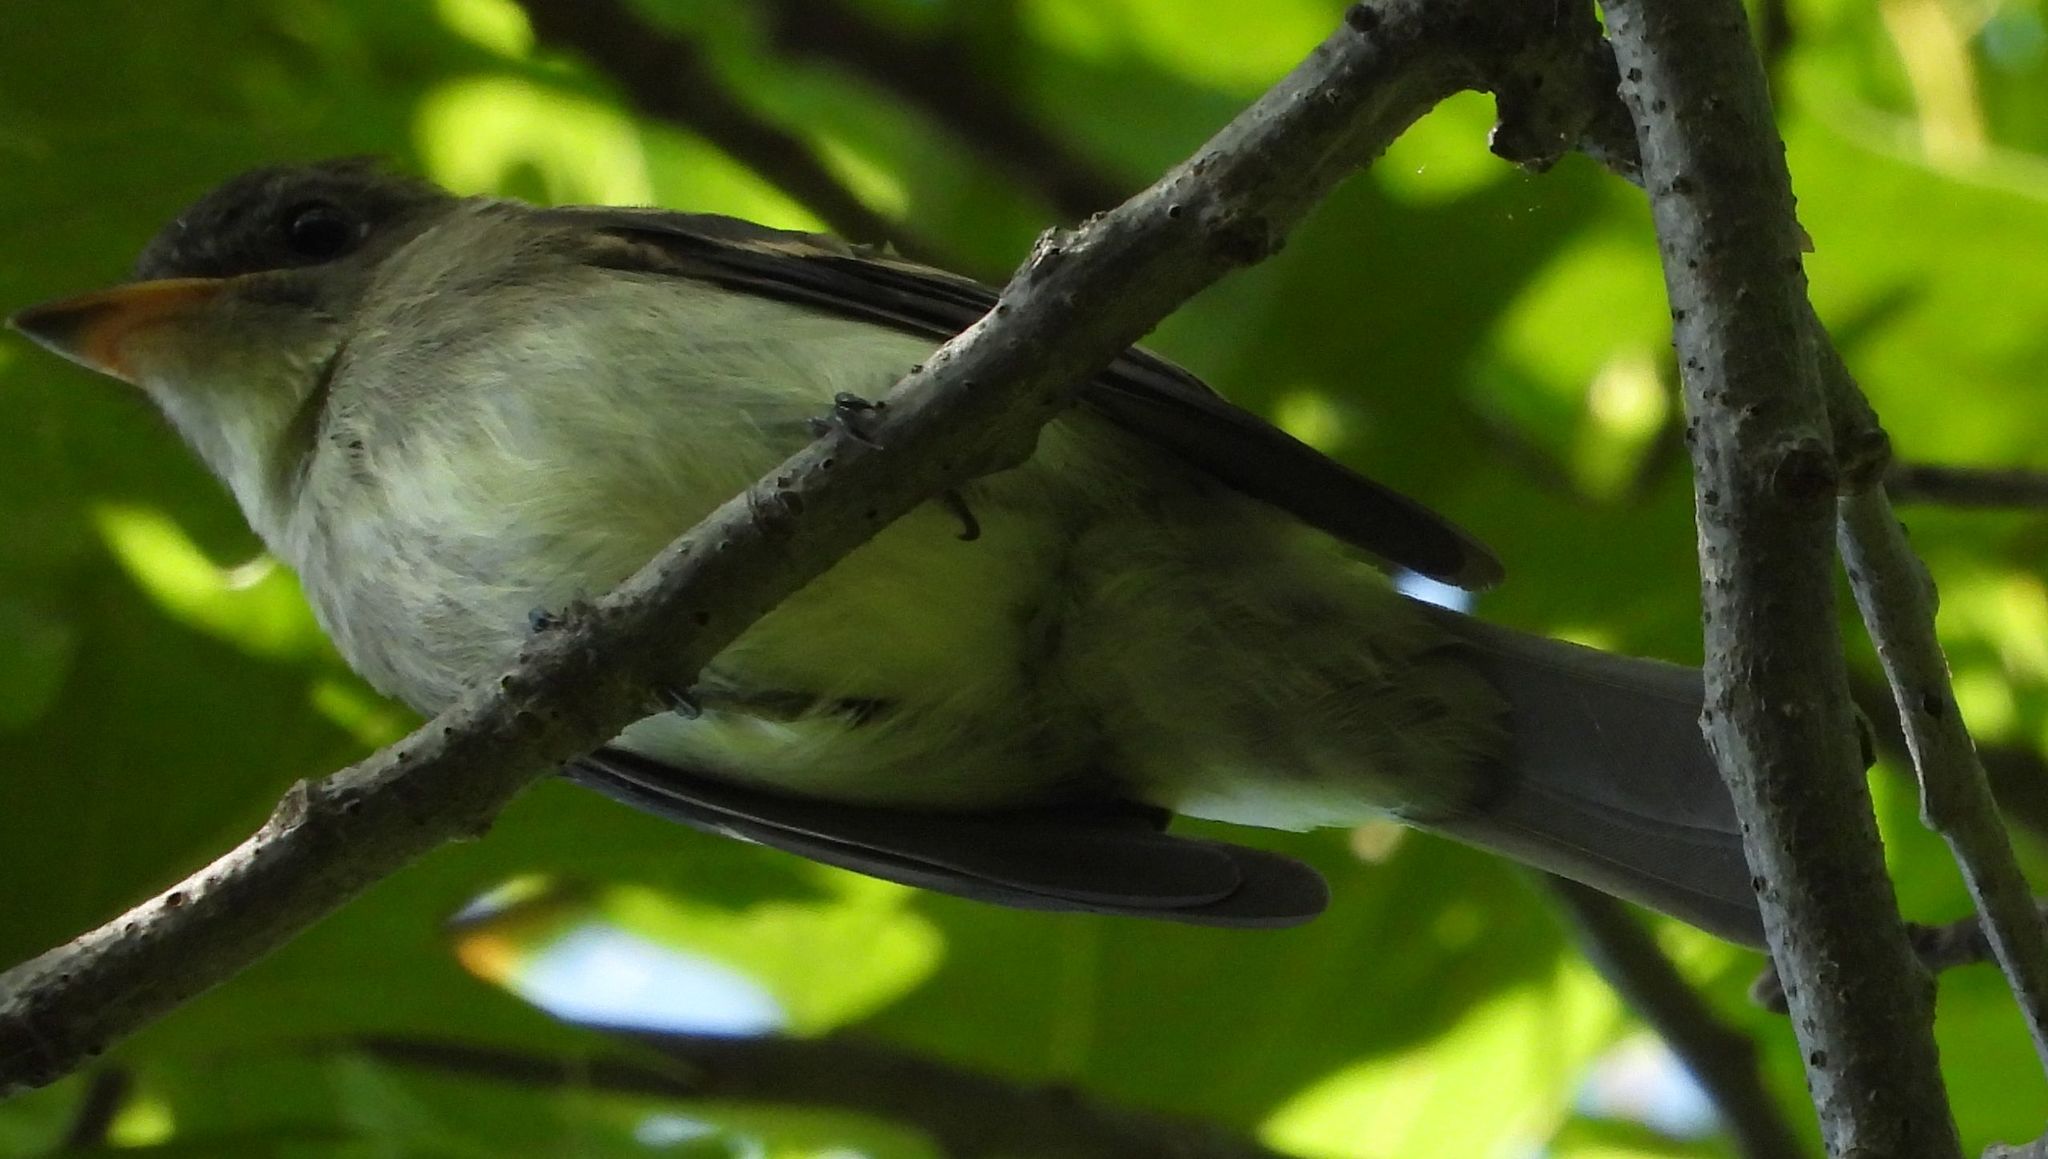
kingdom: Animalia
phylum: Chordata
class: Aves
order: Passeriformes
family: Tyrannidae
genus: Contopus
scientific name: Contopus virens
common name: Eastern wood-pewee
